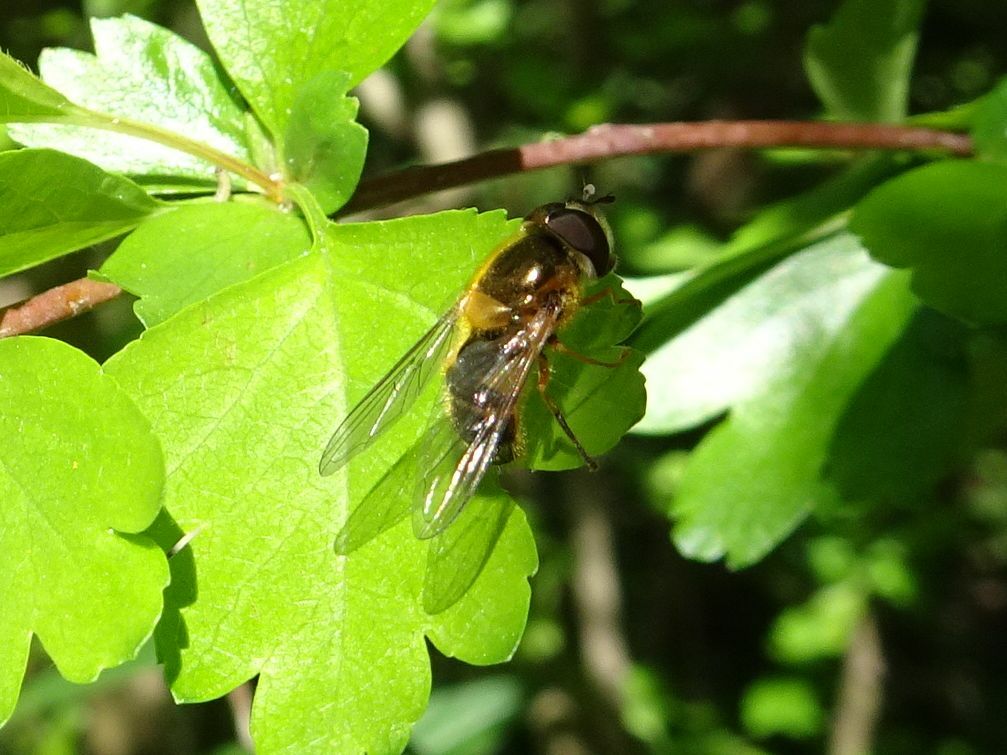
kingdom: Animalia
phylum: Arthropoda
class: Insecta
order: Diptera
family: Syrphidae
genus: Epistrophe
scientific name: Epistrophe eligans
